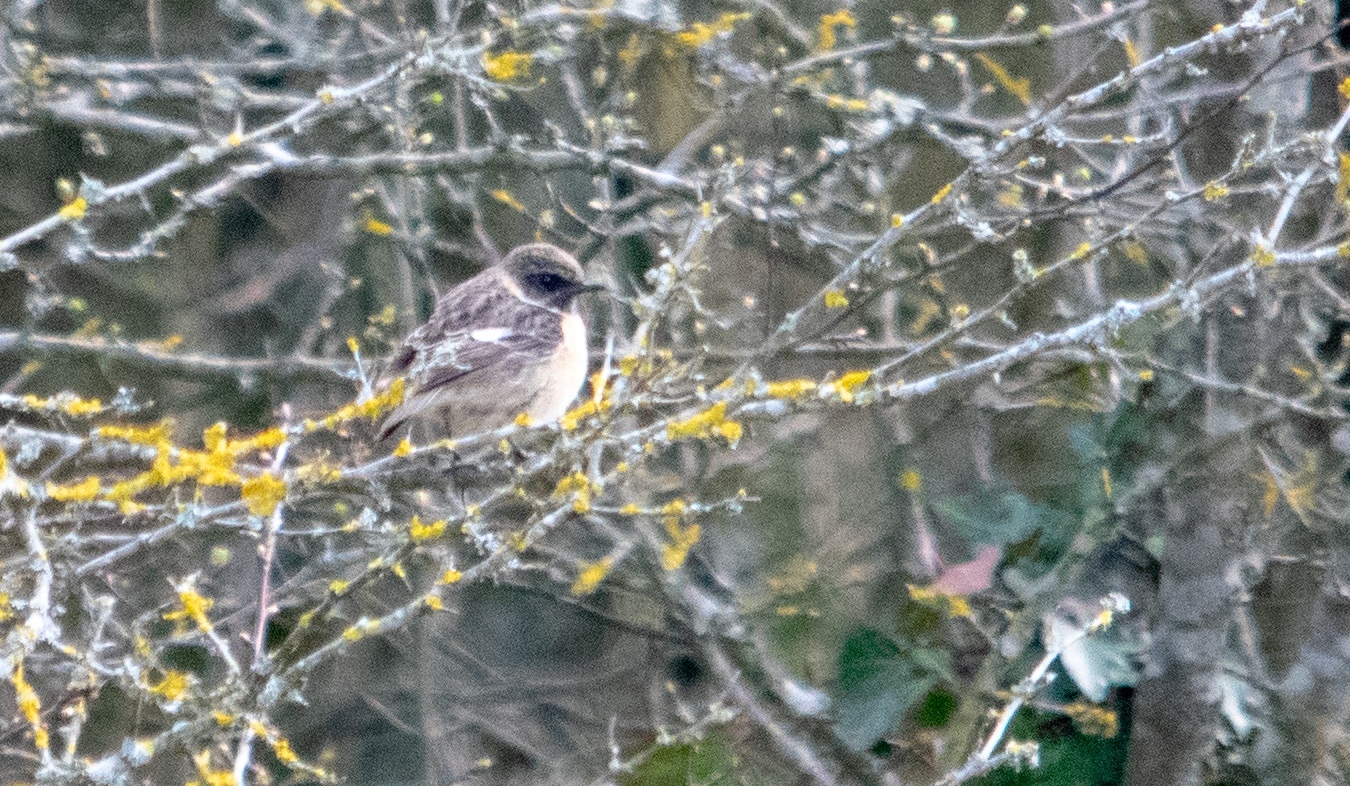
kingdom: Animalia
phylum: Chordata
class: Aves
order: Passeriformes
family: Muscicapidae
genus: Saxicola
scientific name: Saxicola rubicola
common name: European stonechat
